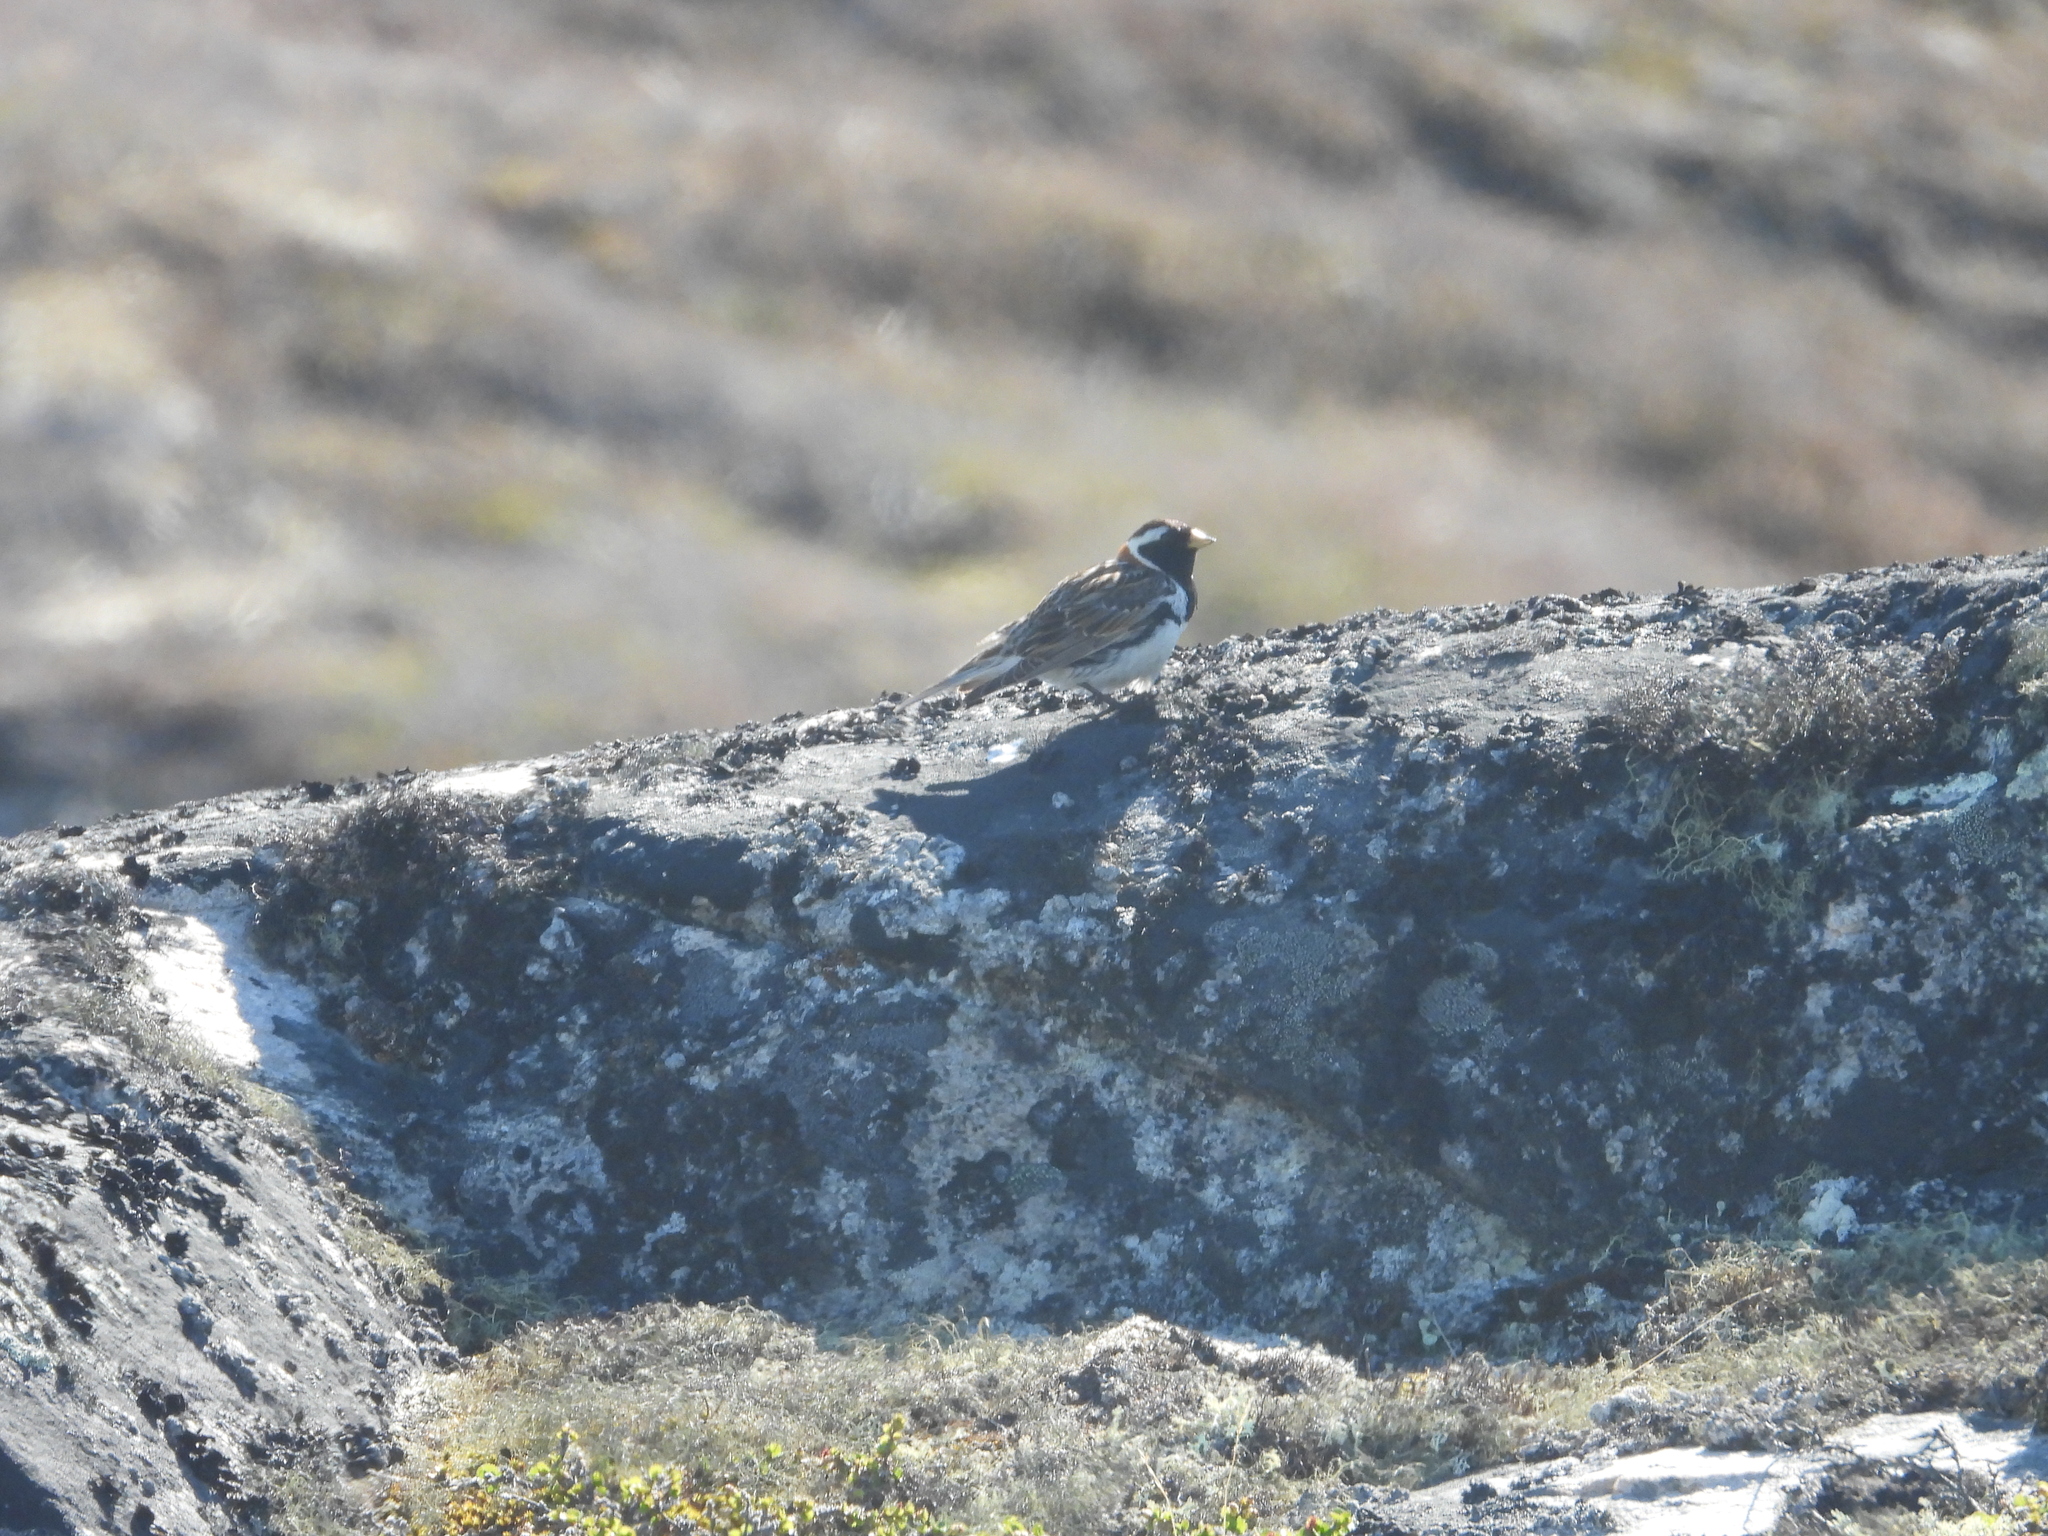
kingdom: Animalia
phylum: Chordata
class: Aves
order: Passeriformes
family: Calcariidae
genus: Calcarius
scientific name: Calcarius lapponicus
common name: Lapland longspur
